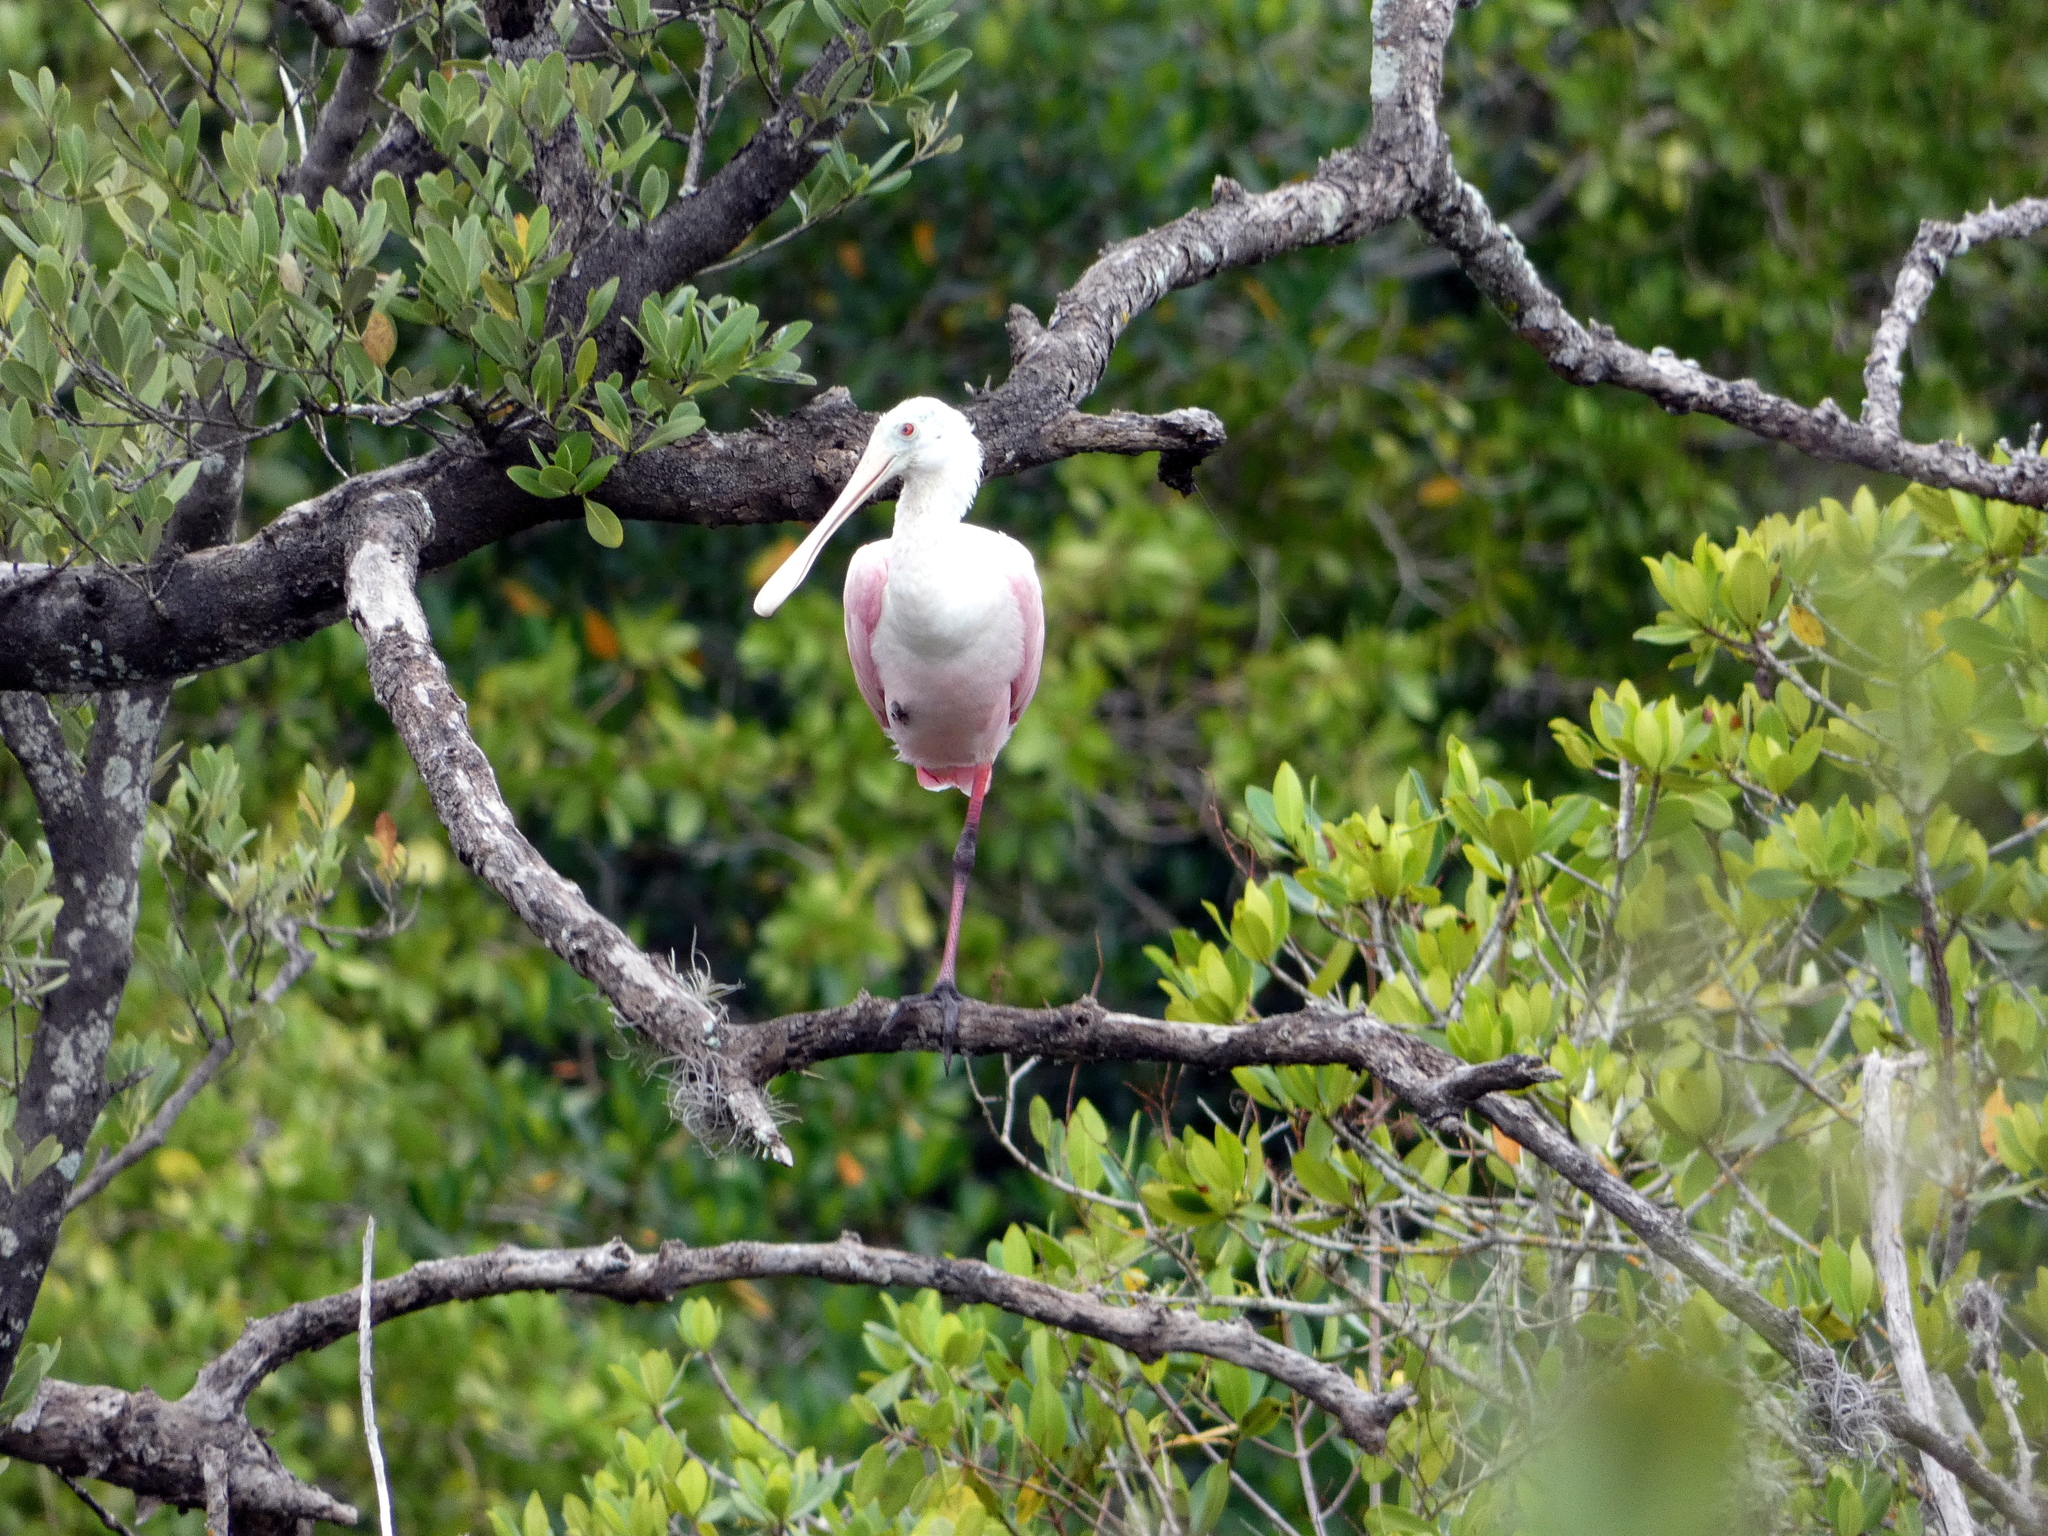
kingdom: Animalia
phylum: Chordata
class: Aves
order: Pelecaniformes
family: Threskiornithidae
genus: Platalea
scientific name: Platalea ajaja
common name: Roseate spoonbill
